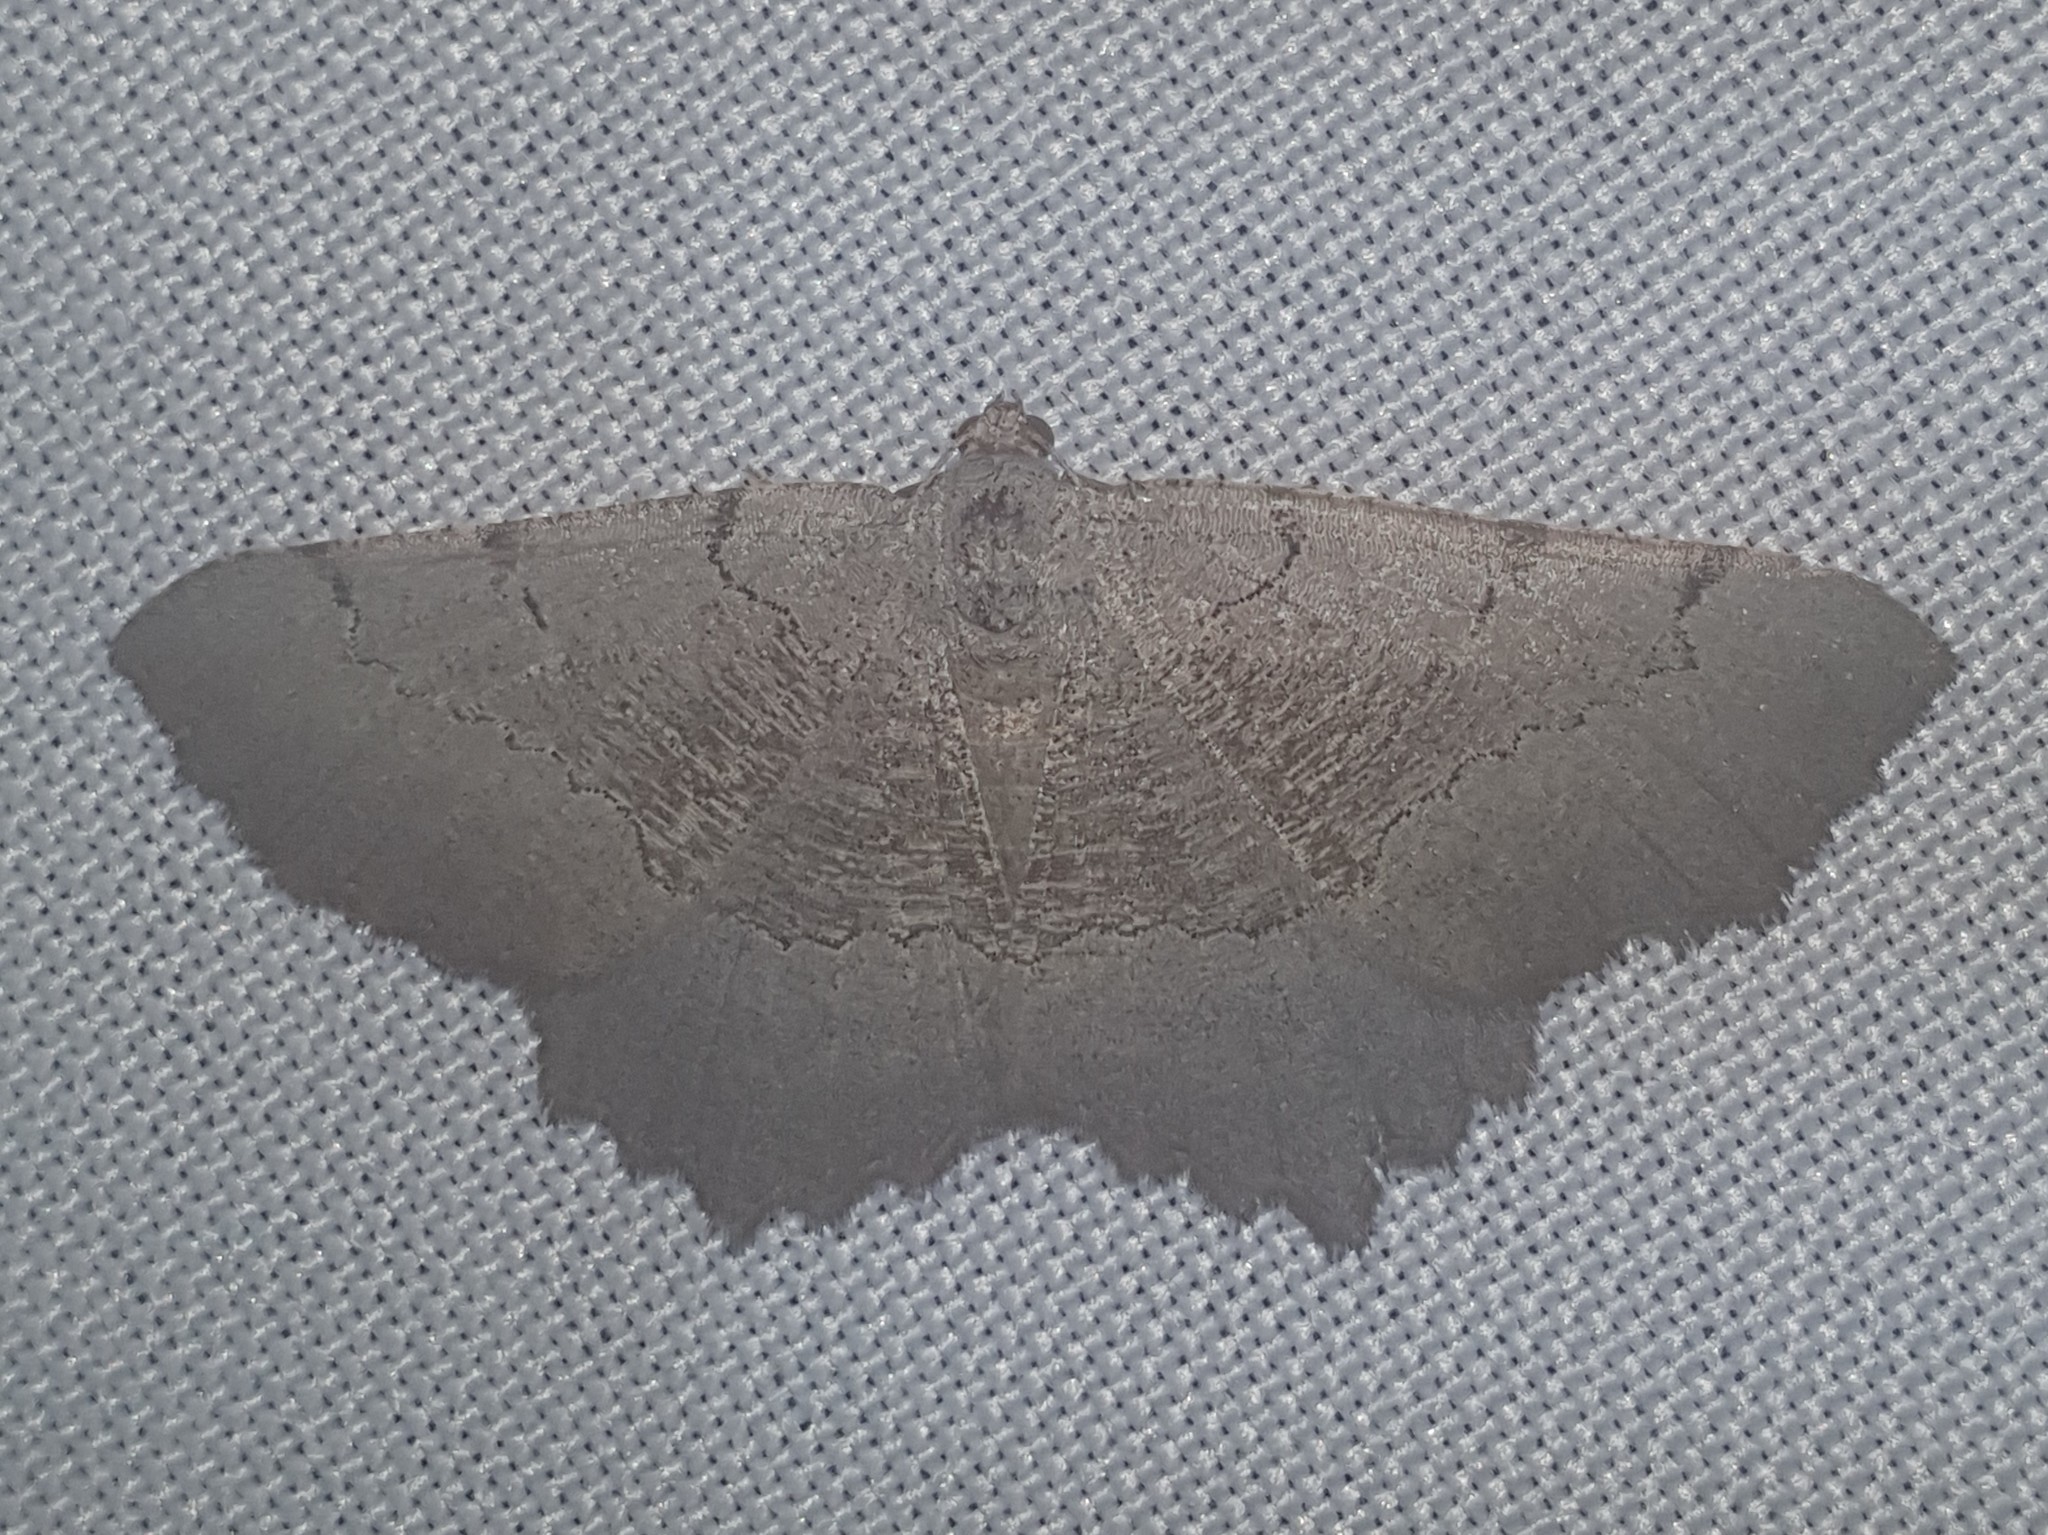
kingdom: Animalia
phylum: Arthropoda
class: Insecta
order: Lepidoptera
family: Geometridae
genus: Neognopharmia
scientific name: Neognopharmia stevenaria
